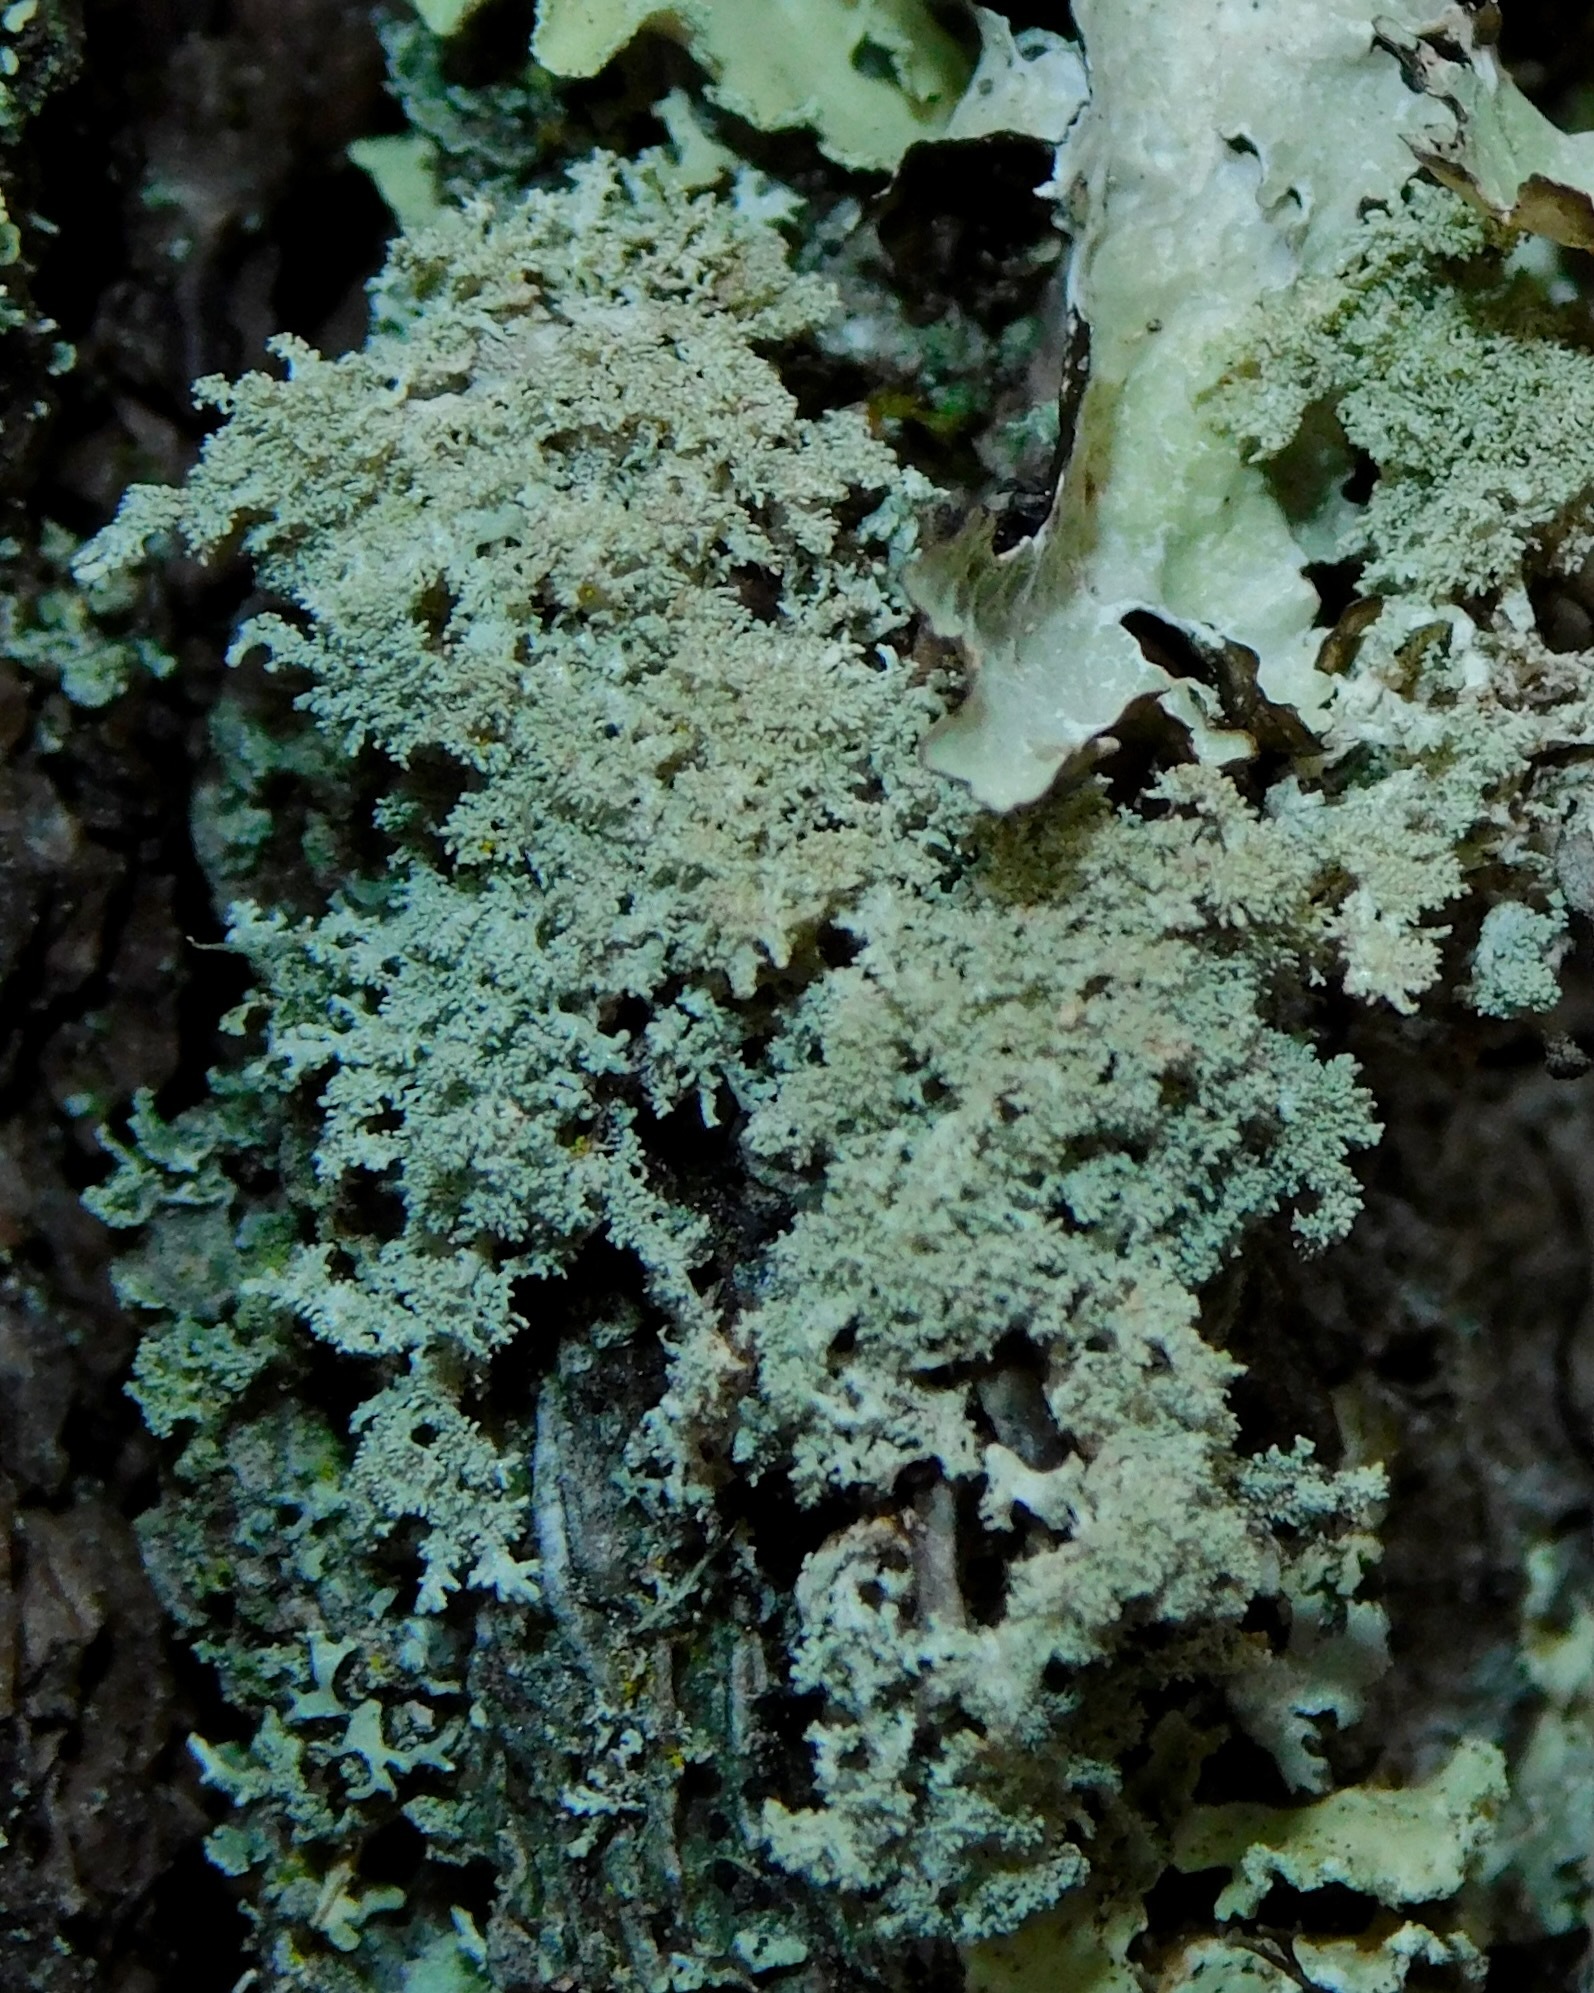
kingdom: Fungi
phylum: Ascomycota
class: Lecanoromycetes
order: Lecanorales
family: Parmeliaceae
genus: Imshaugia
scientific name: Imshaugia aleurites
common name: Salted starburst lichen
